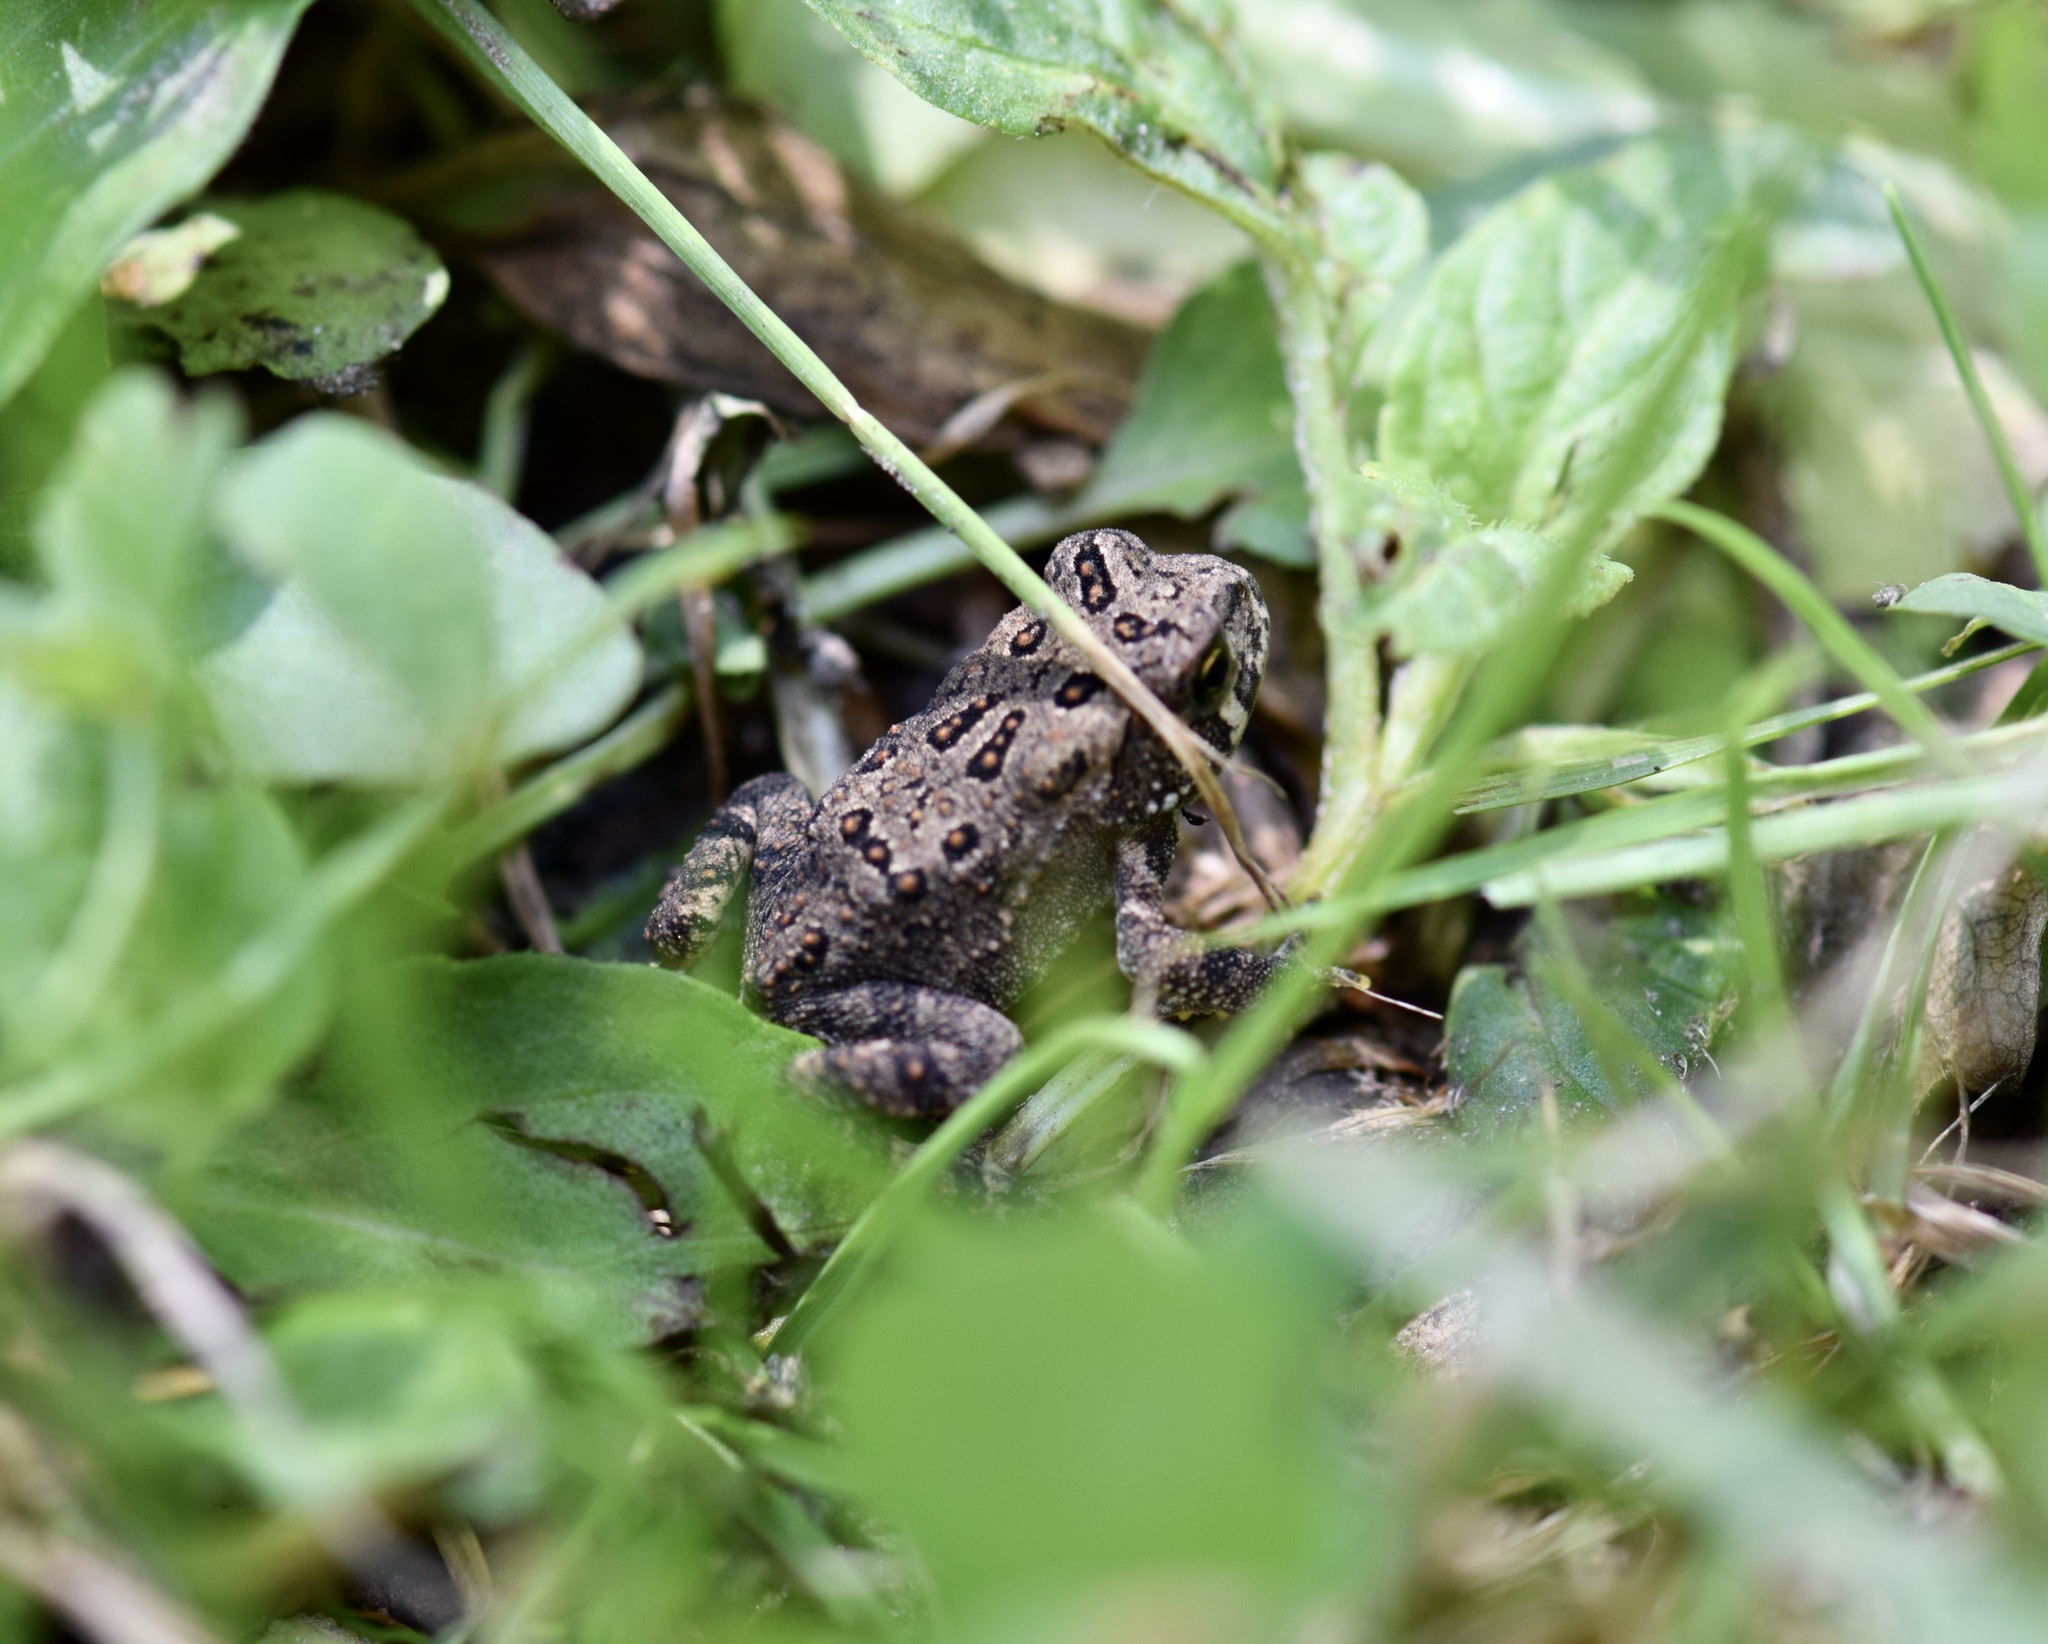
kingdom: Animalia
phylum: Chordata
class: Amphibia
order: Anura
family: Bufonidae
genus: Anaxyrus
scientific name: Anaxyrus americanus
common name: American toad
